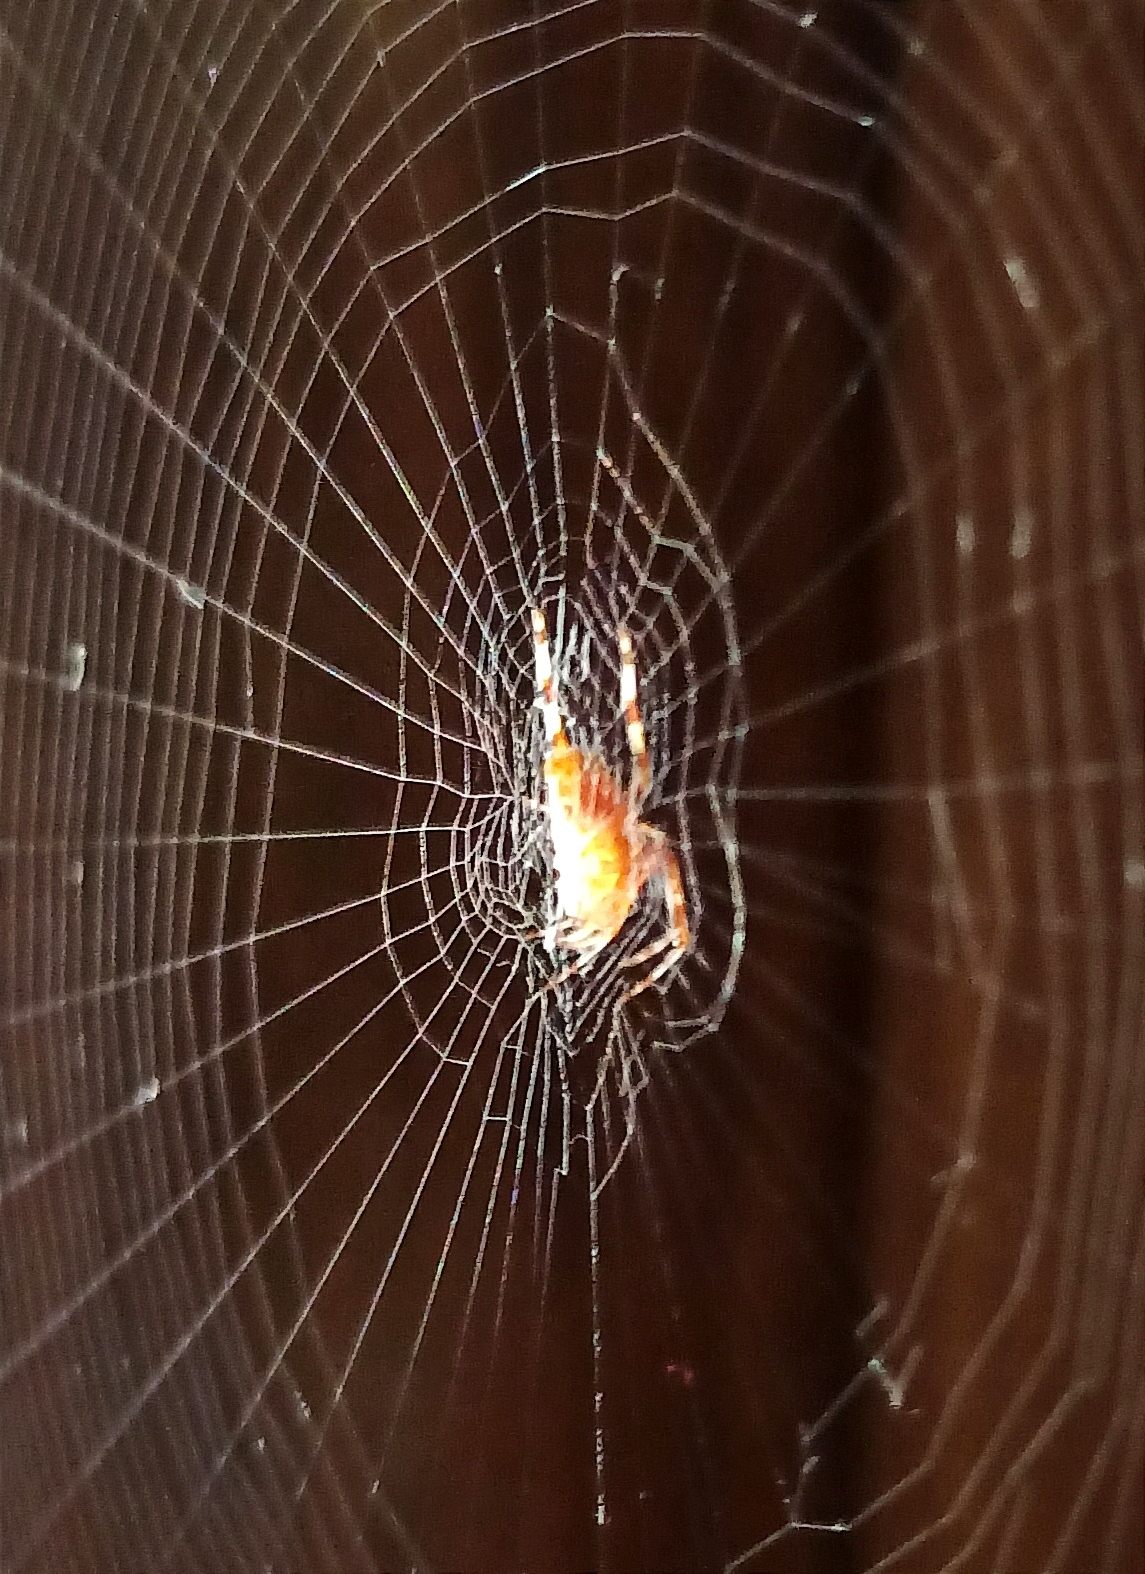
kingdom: Animalia
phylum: Arthropoda
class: Arachnida
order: Araneae
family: Araneidae
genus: Araneus
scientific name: Araneus diadematus
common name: Cross orbweaver
